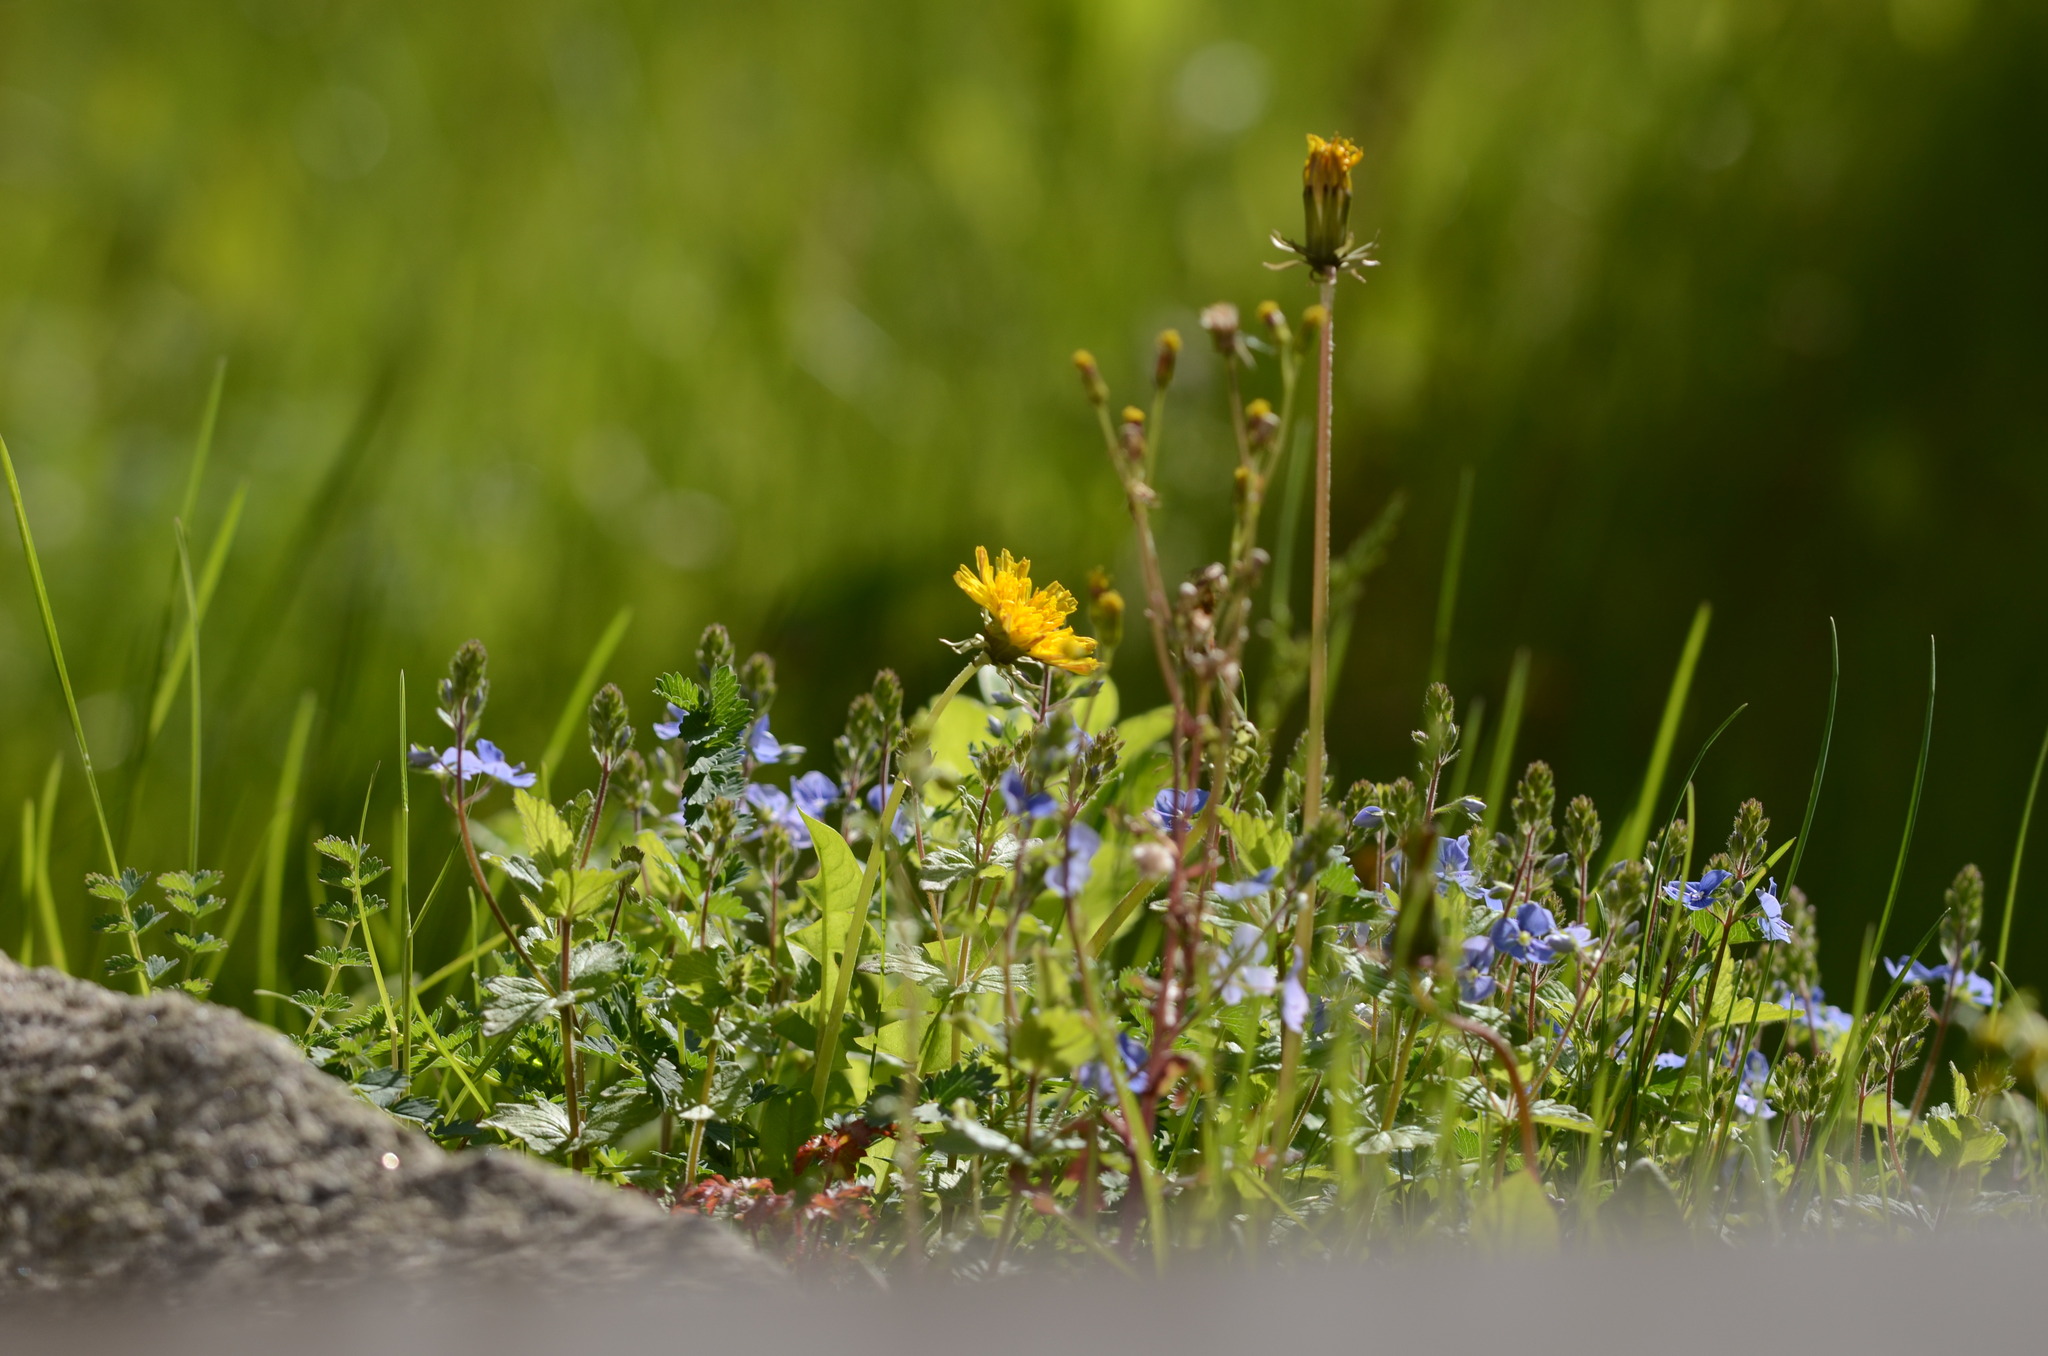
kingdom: Plantae
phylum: Tracheophyta
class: Magnoliopsida
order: Asterales
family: Asteraceae
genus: Taraxacum
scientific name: Taraxacum
